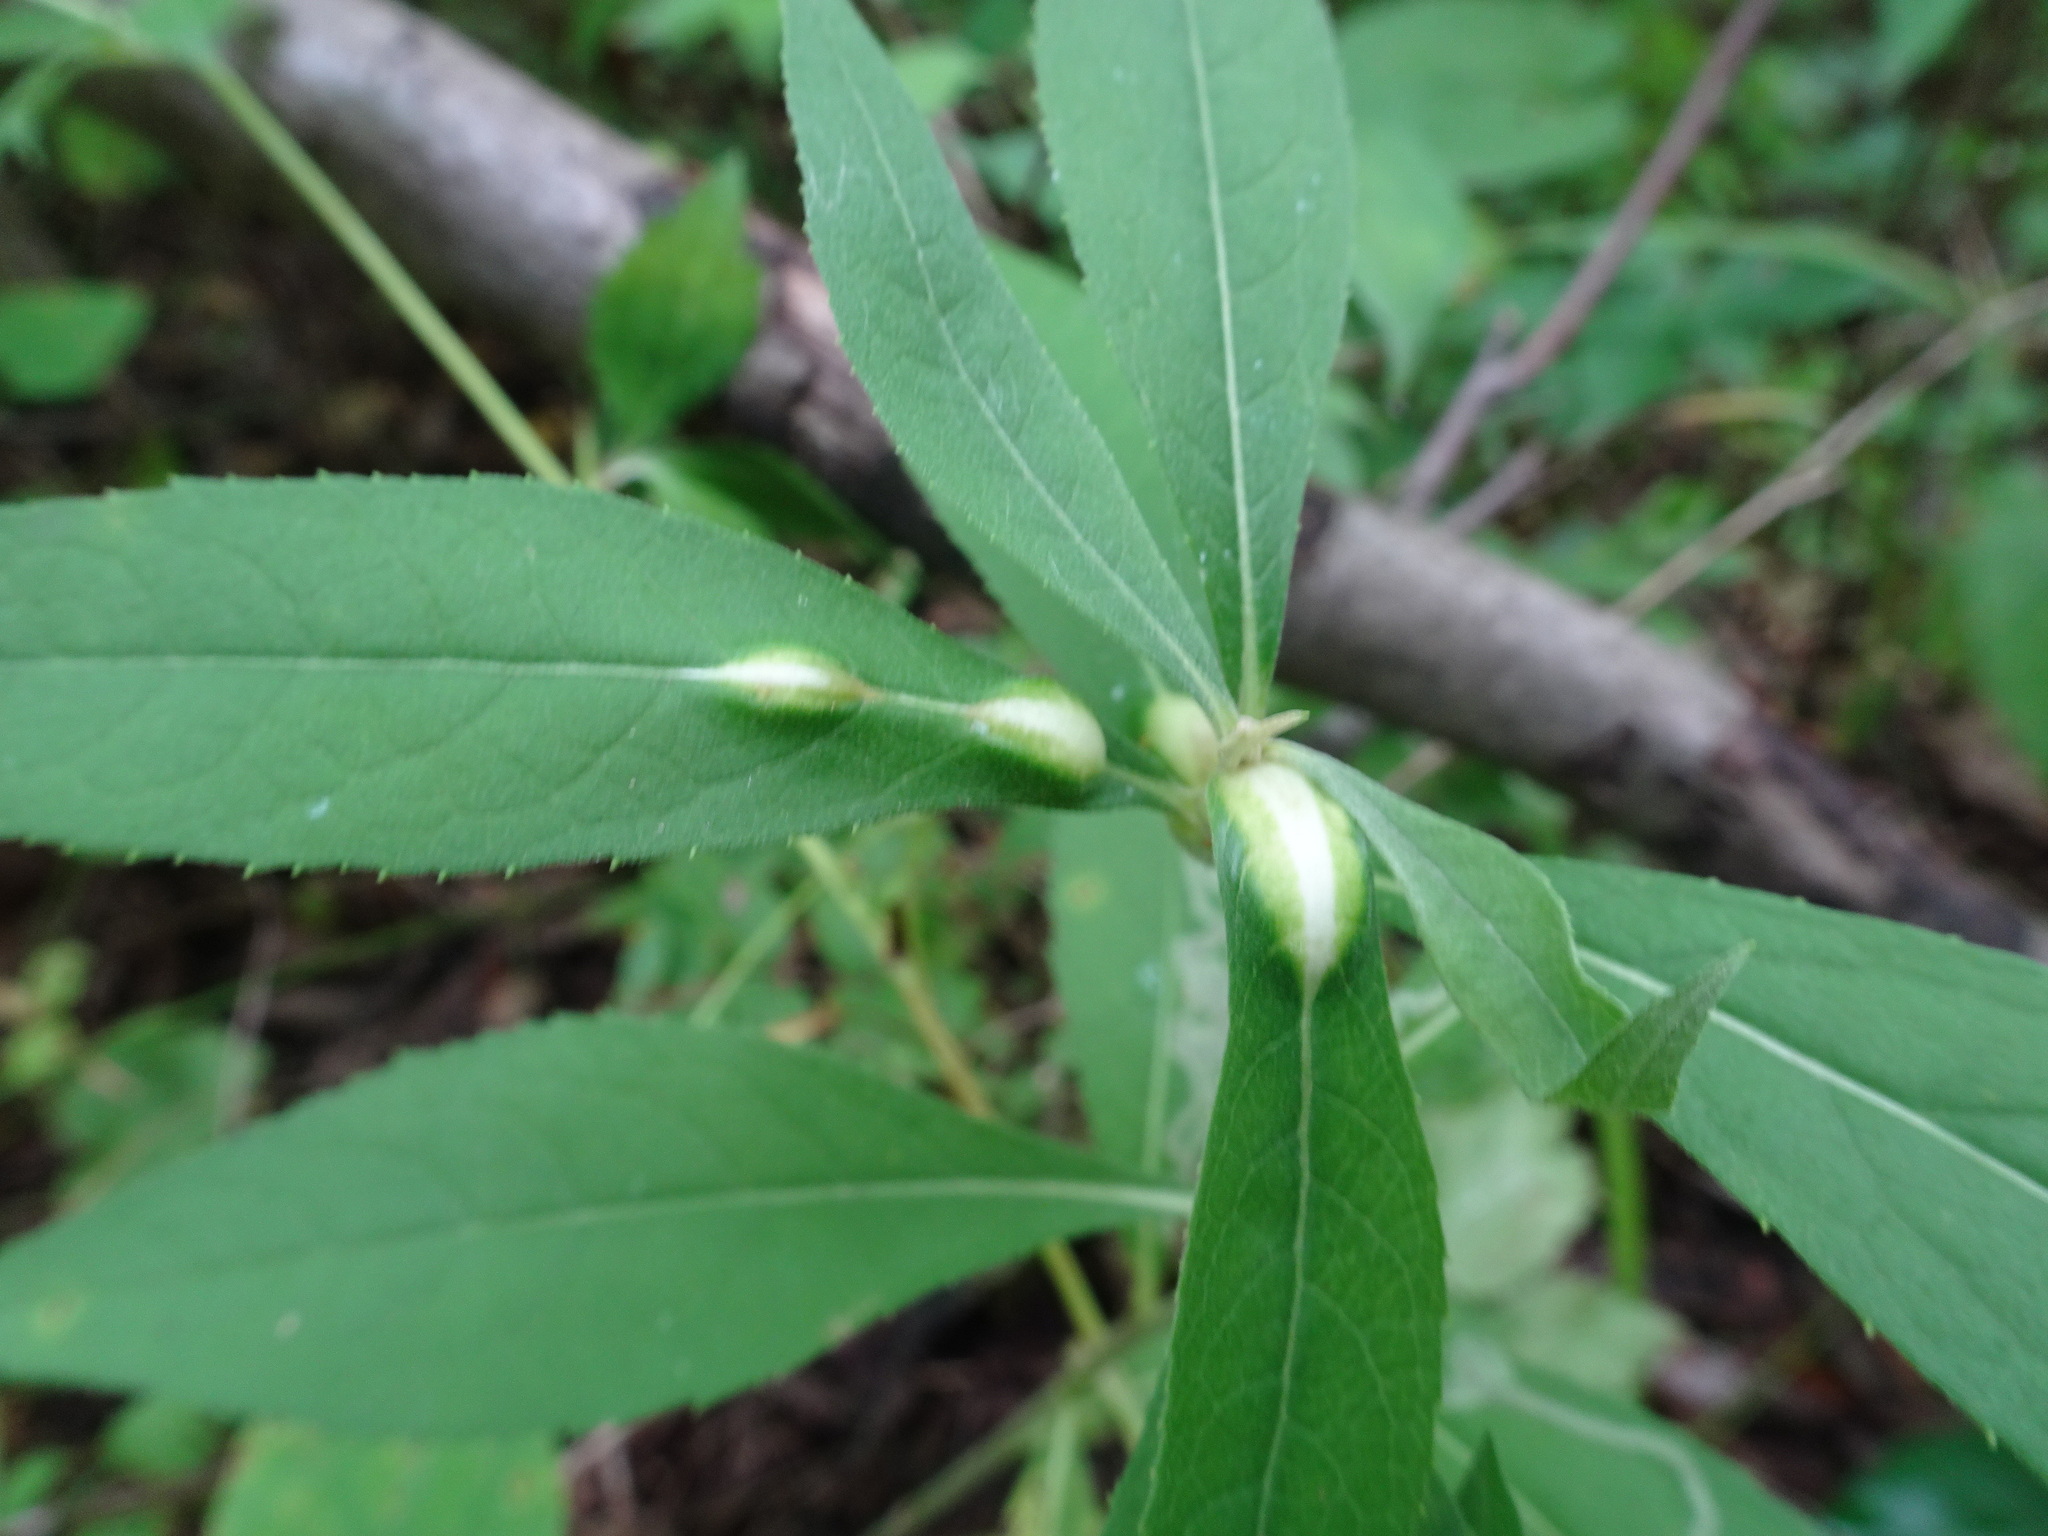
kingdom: Animalia
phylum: Arthropoda
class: Insecta
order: Diptera
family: Cecidomyiidae
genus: Neolasioptera
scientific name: Neolasioptera verbesinae
